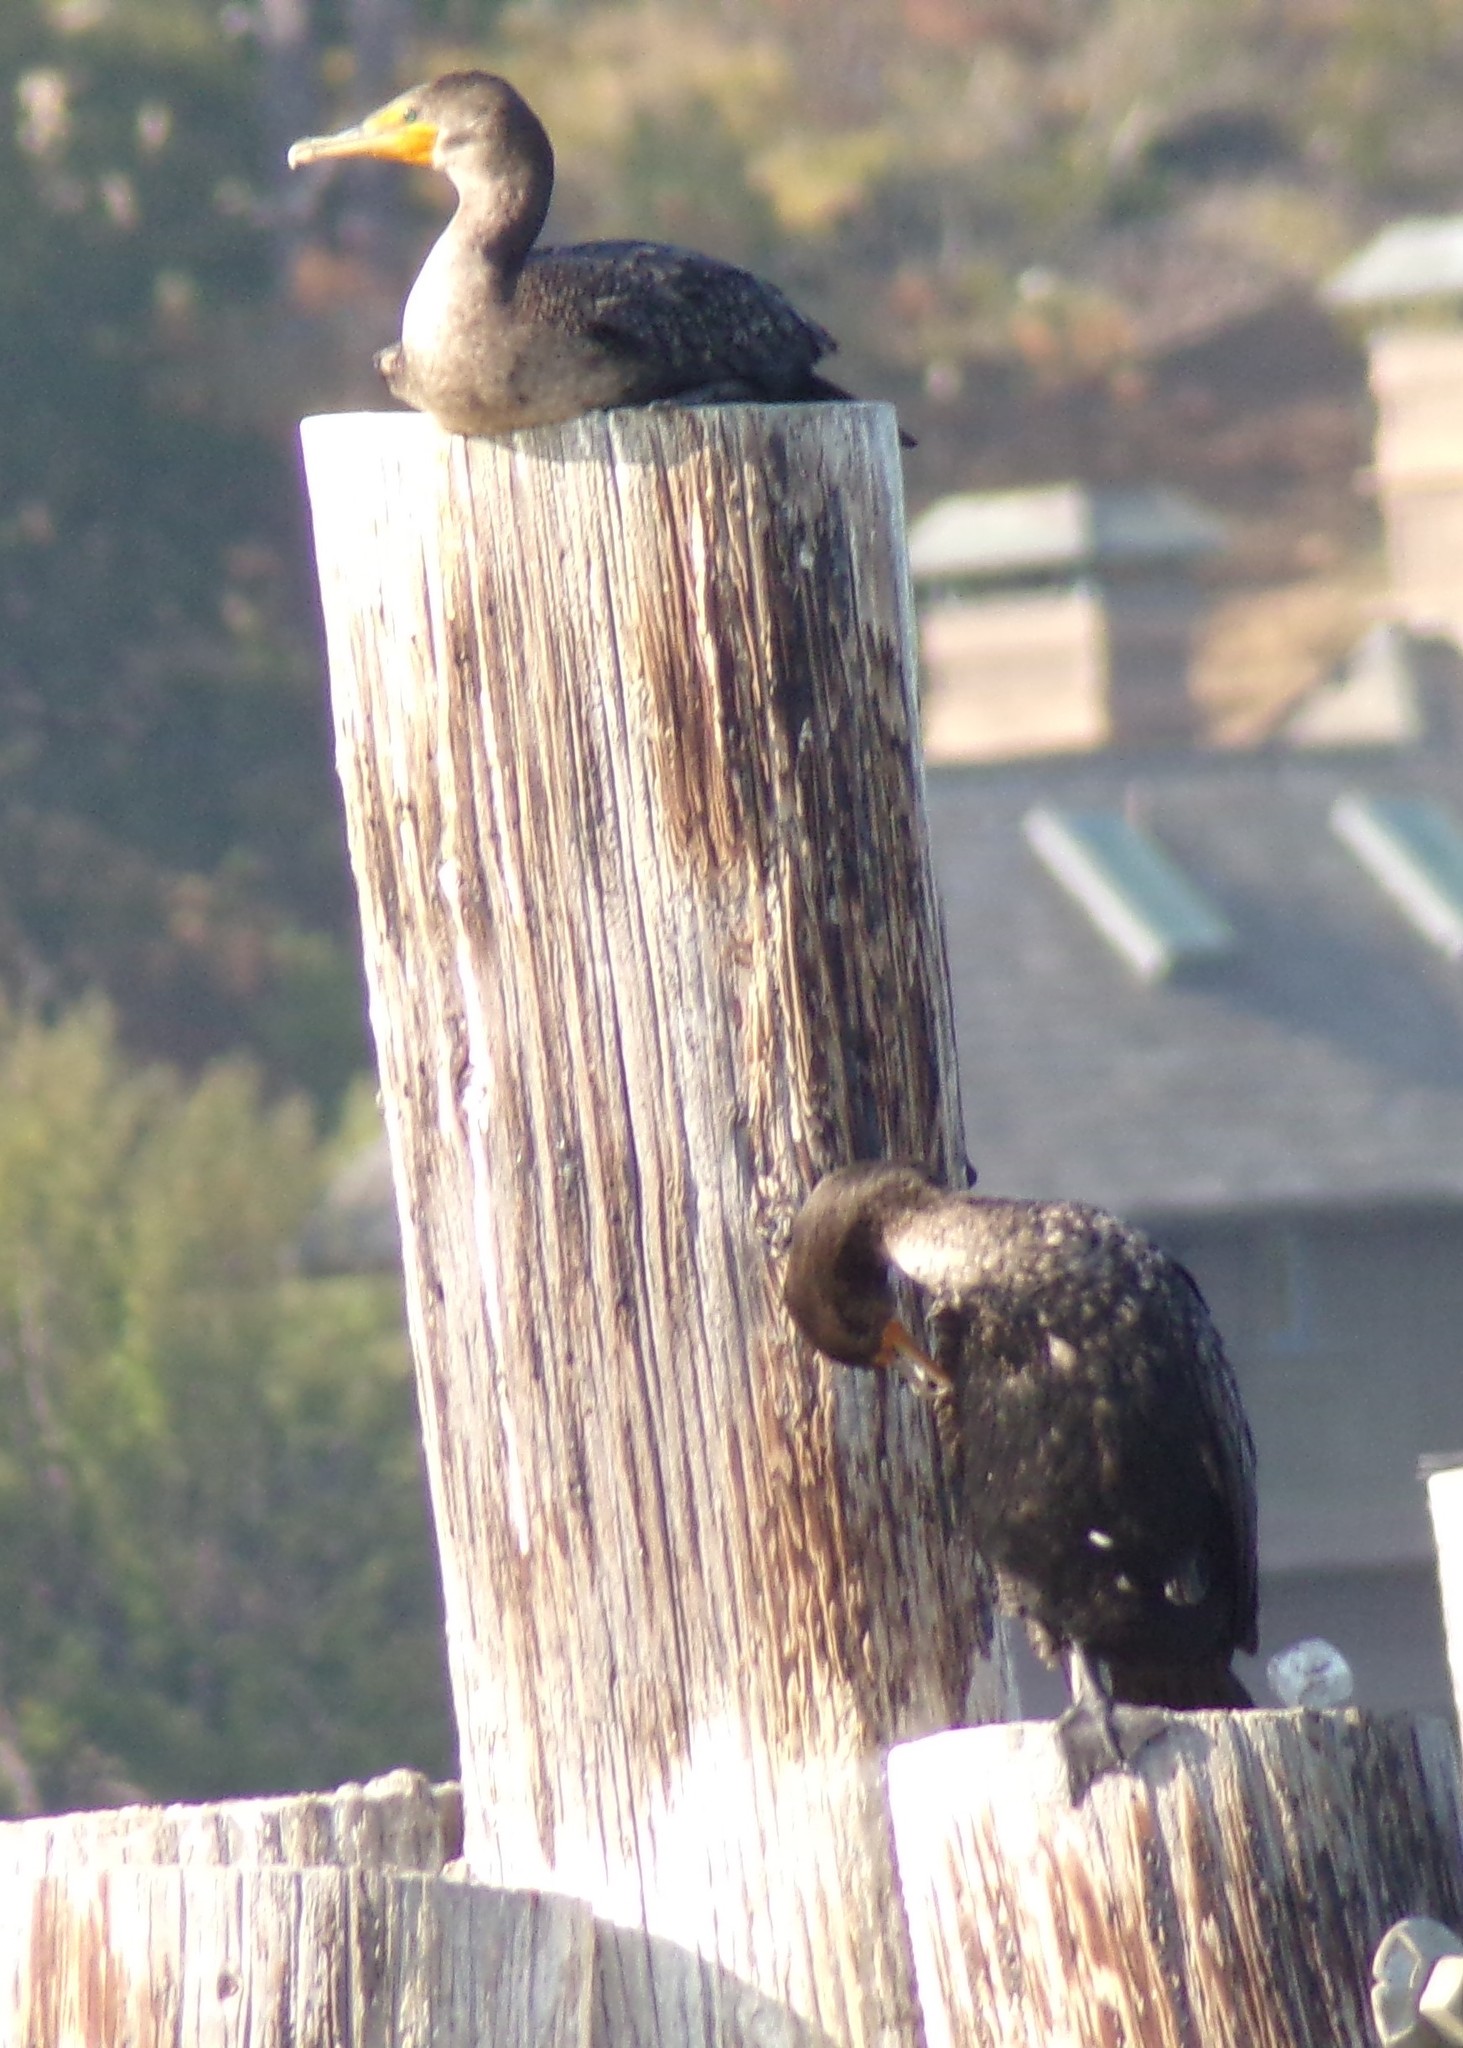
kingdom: Animalia
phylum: Chordata
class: Aves
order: Suliformes
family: Phalacrocoracidae
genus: Phalacrocorax
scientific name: Phalacrocorax auritus
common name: Double-crested cormorant
